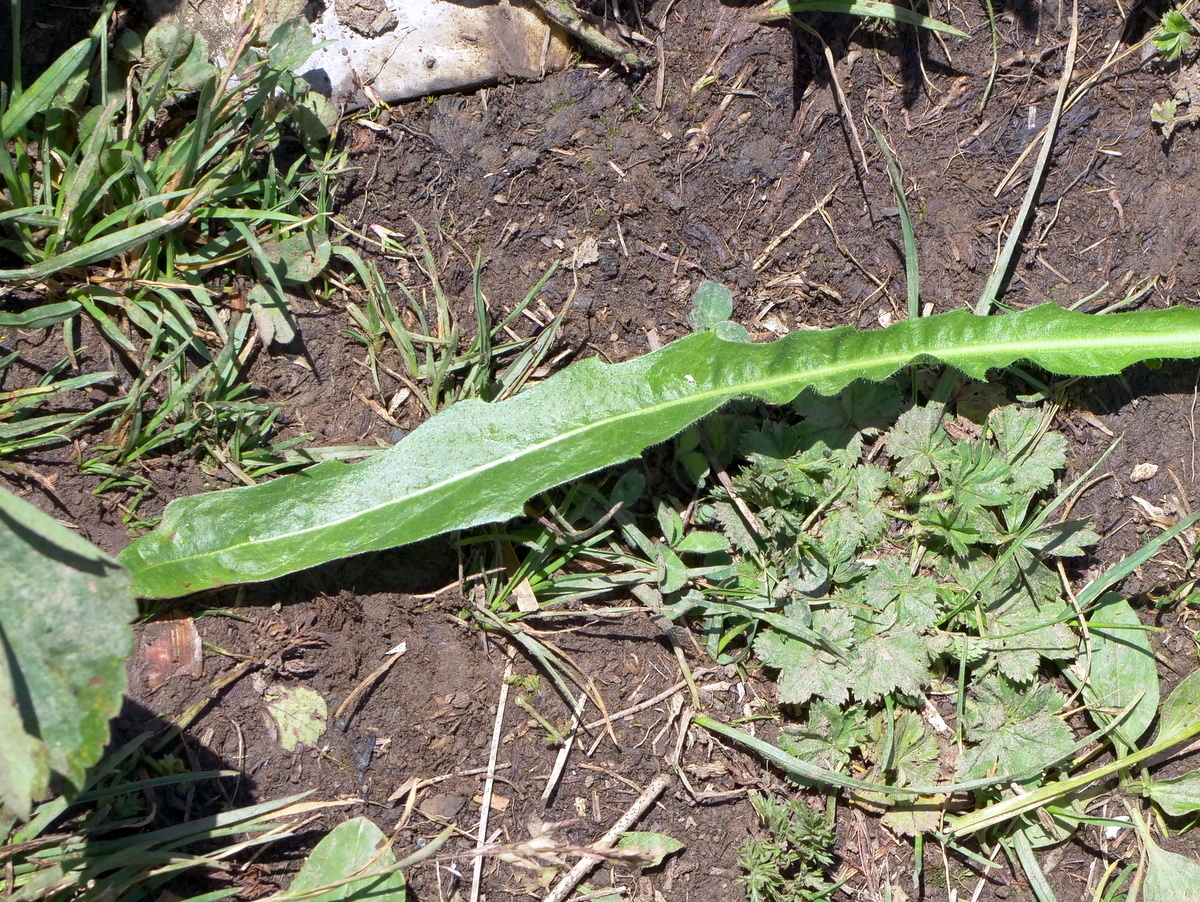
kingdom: Plantae
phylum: Tracheophyta
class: Magnoliopsida
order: Asterales
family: Asteraceae
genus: Leontodon
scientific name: Leontodon hispidus
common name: Rough hawkbit
